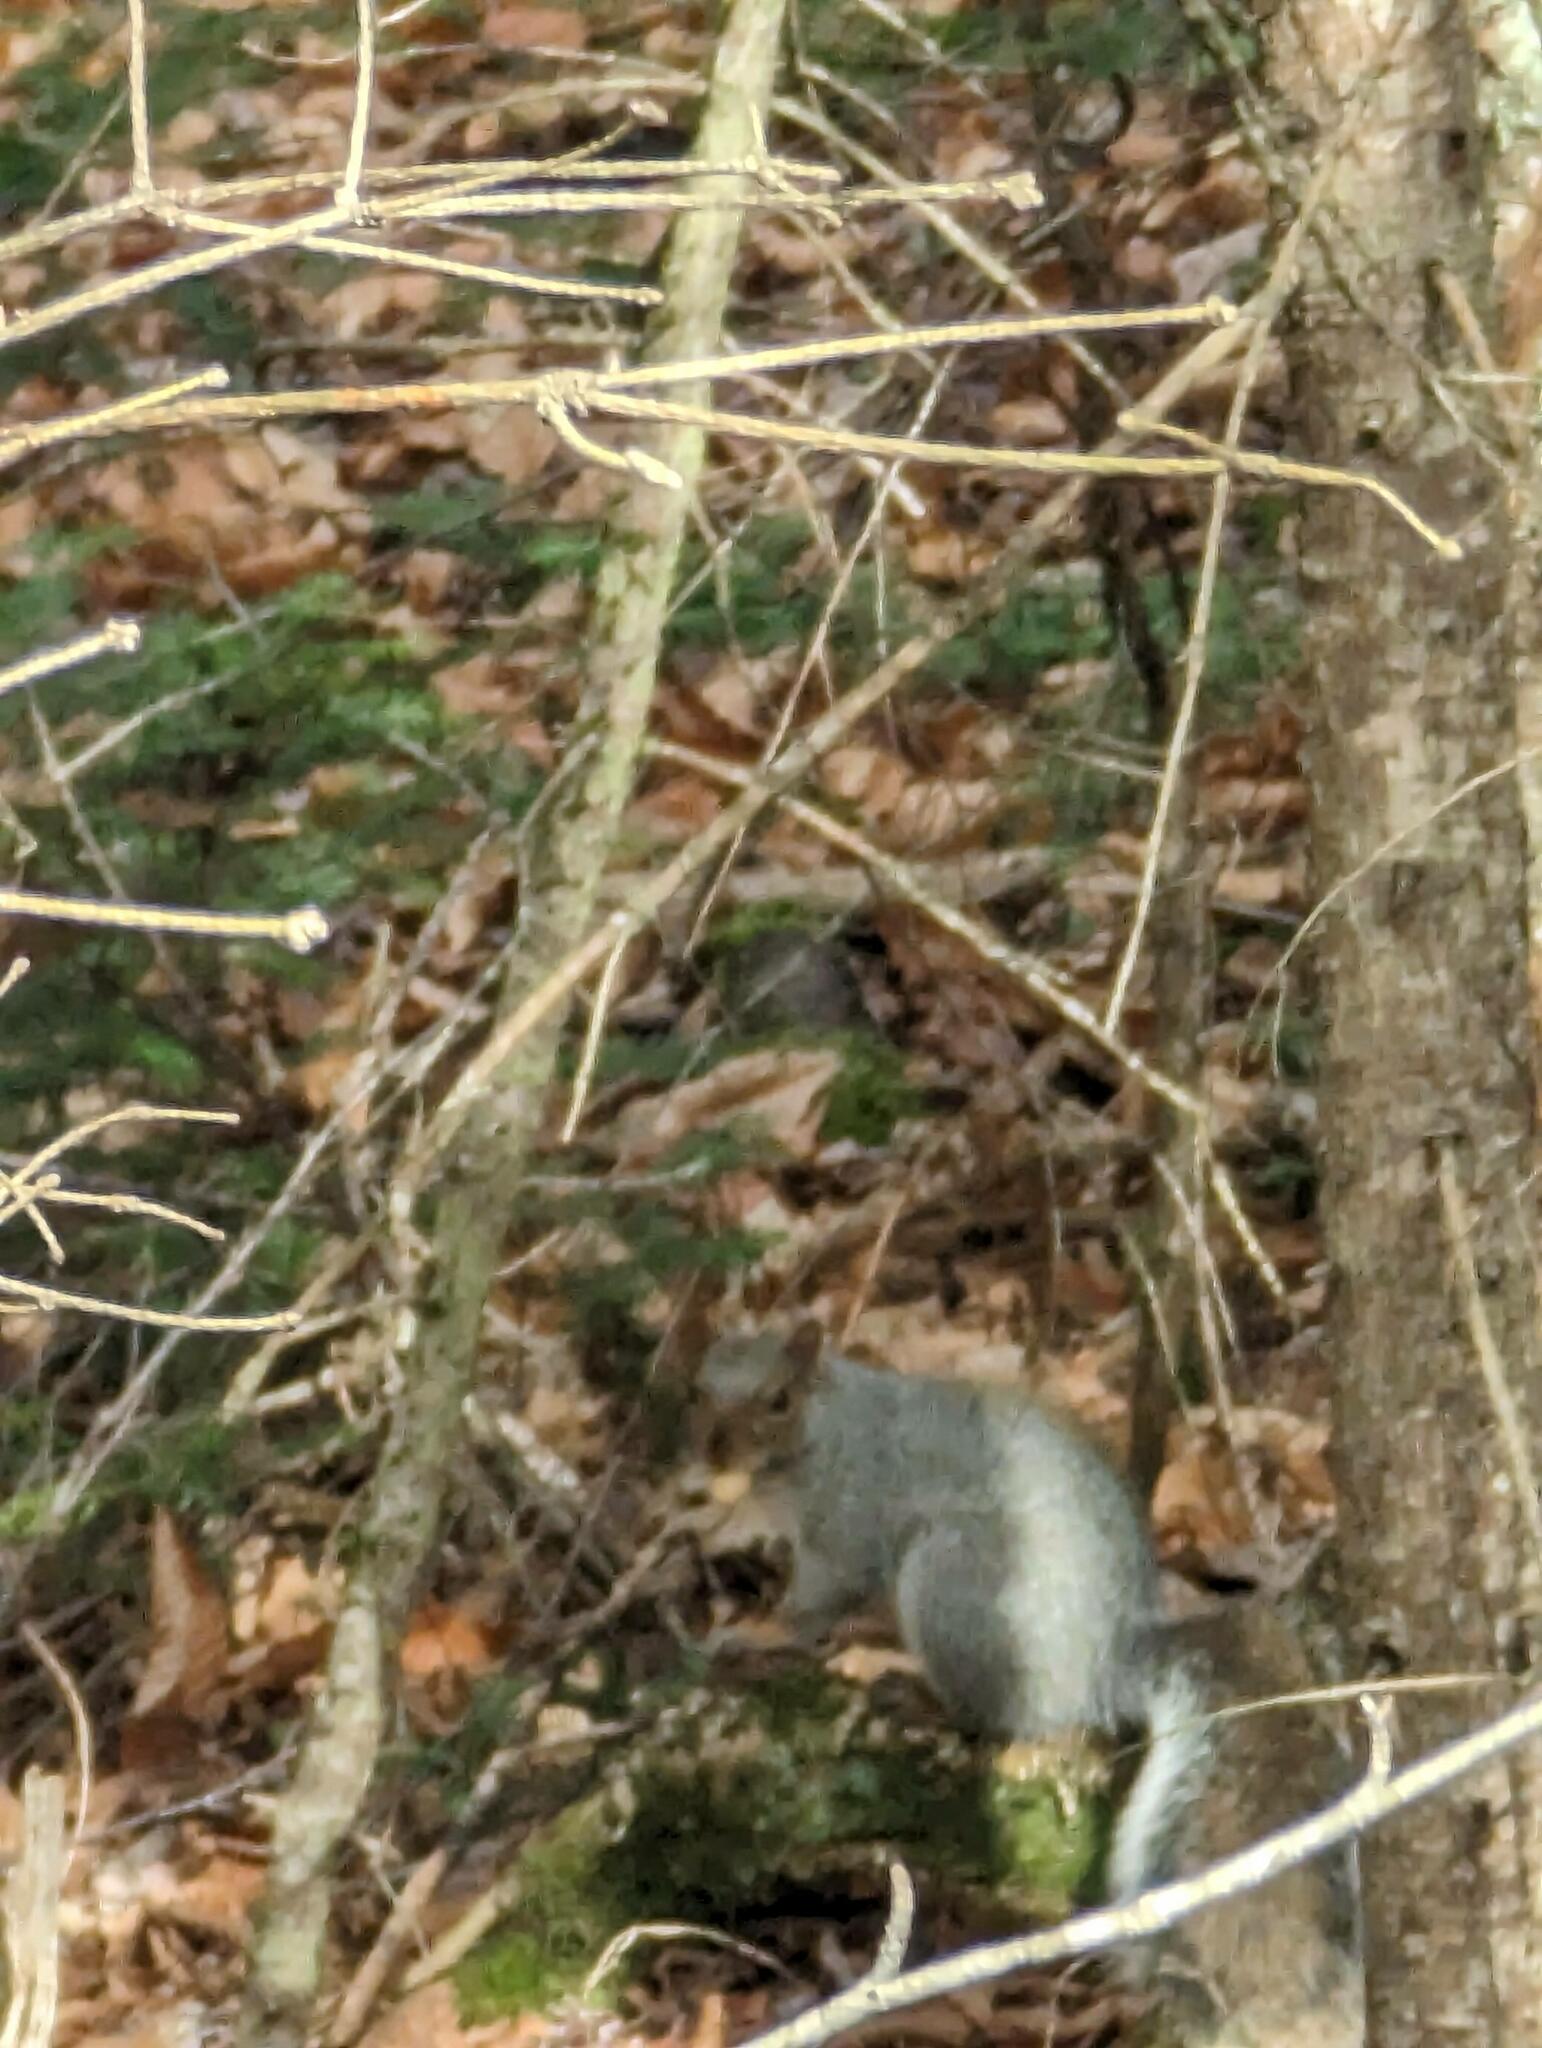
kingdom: Animalia
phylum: Chordata
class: Mammalia
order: Rodentia
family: Sciuridae
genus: Sciurus
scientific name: Sciurus carolinensis
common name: Eastern gray squirrel
